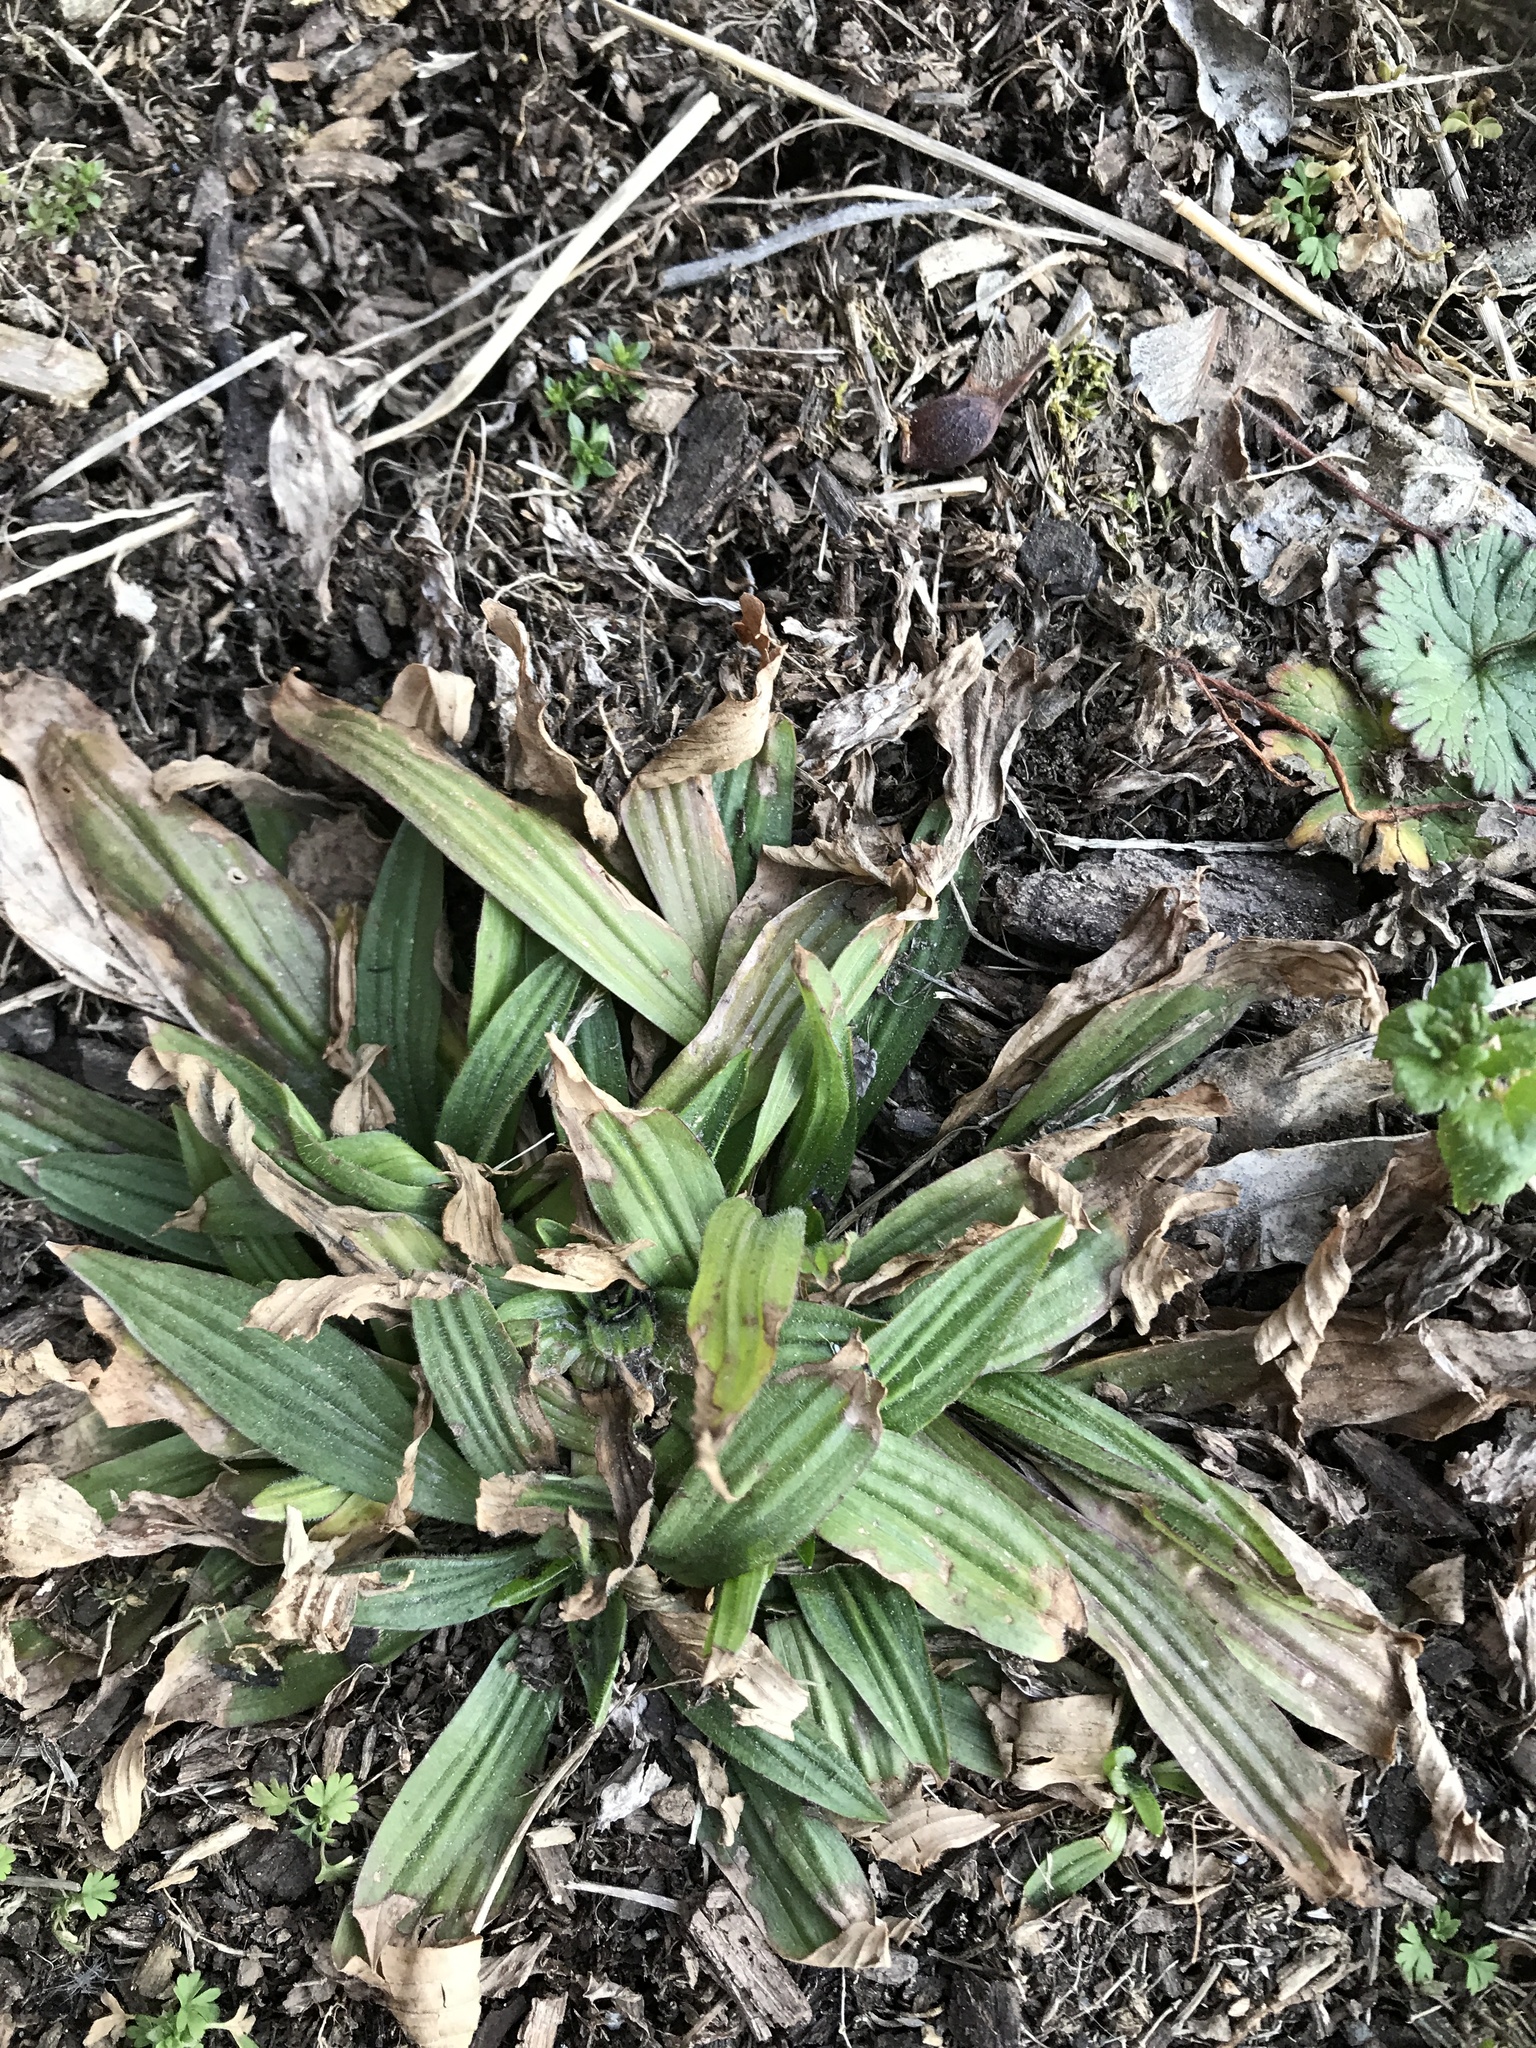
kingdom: Plantae
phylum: Tracheophyta
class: Magnoliopsida
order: Lamiales
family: Plantaginaceae
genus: Plantago
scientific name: Plantago lanceolata
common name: Ribwort plantain
